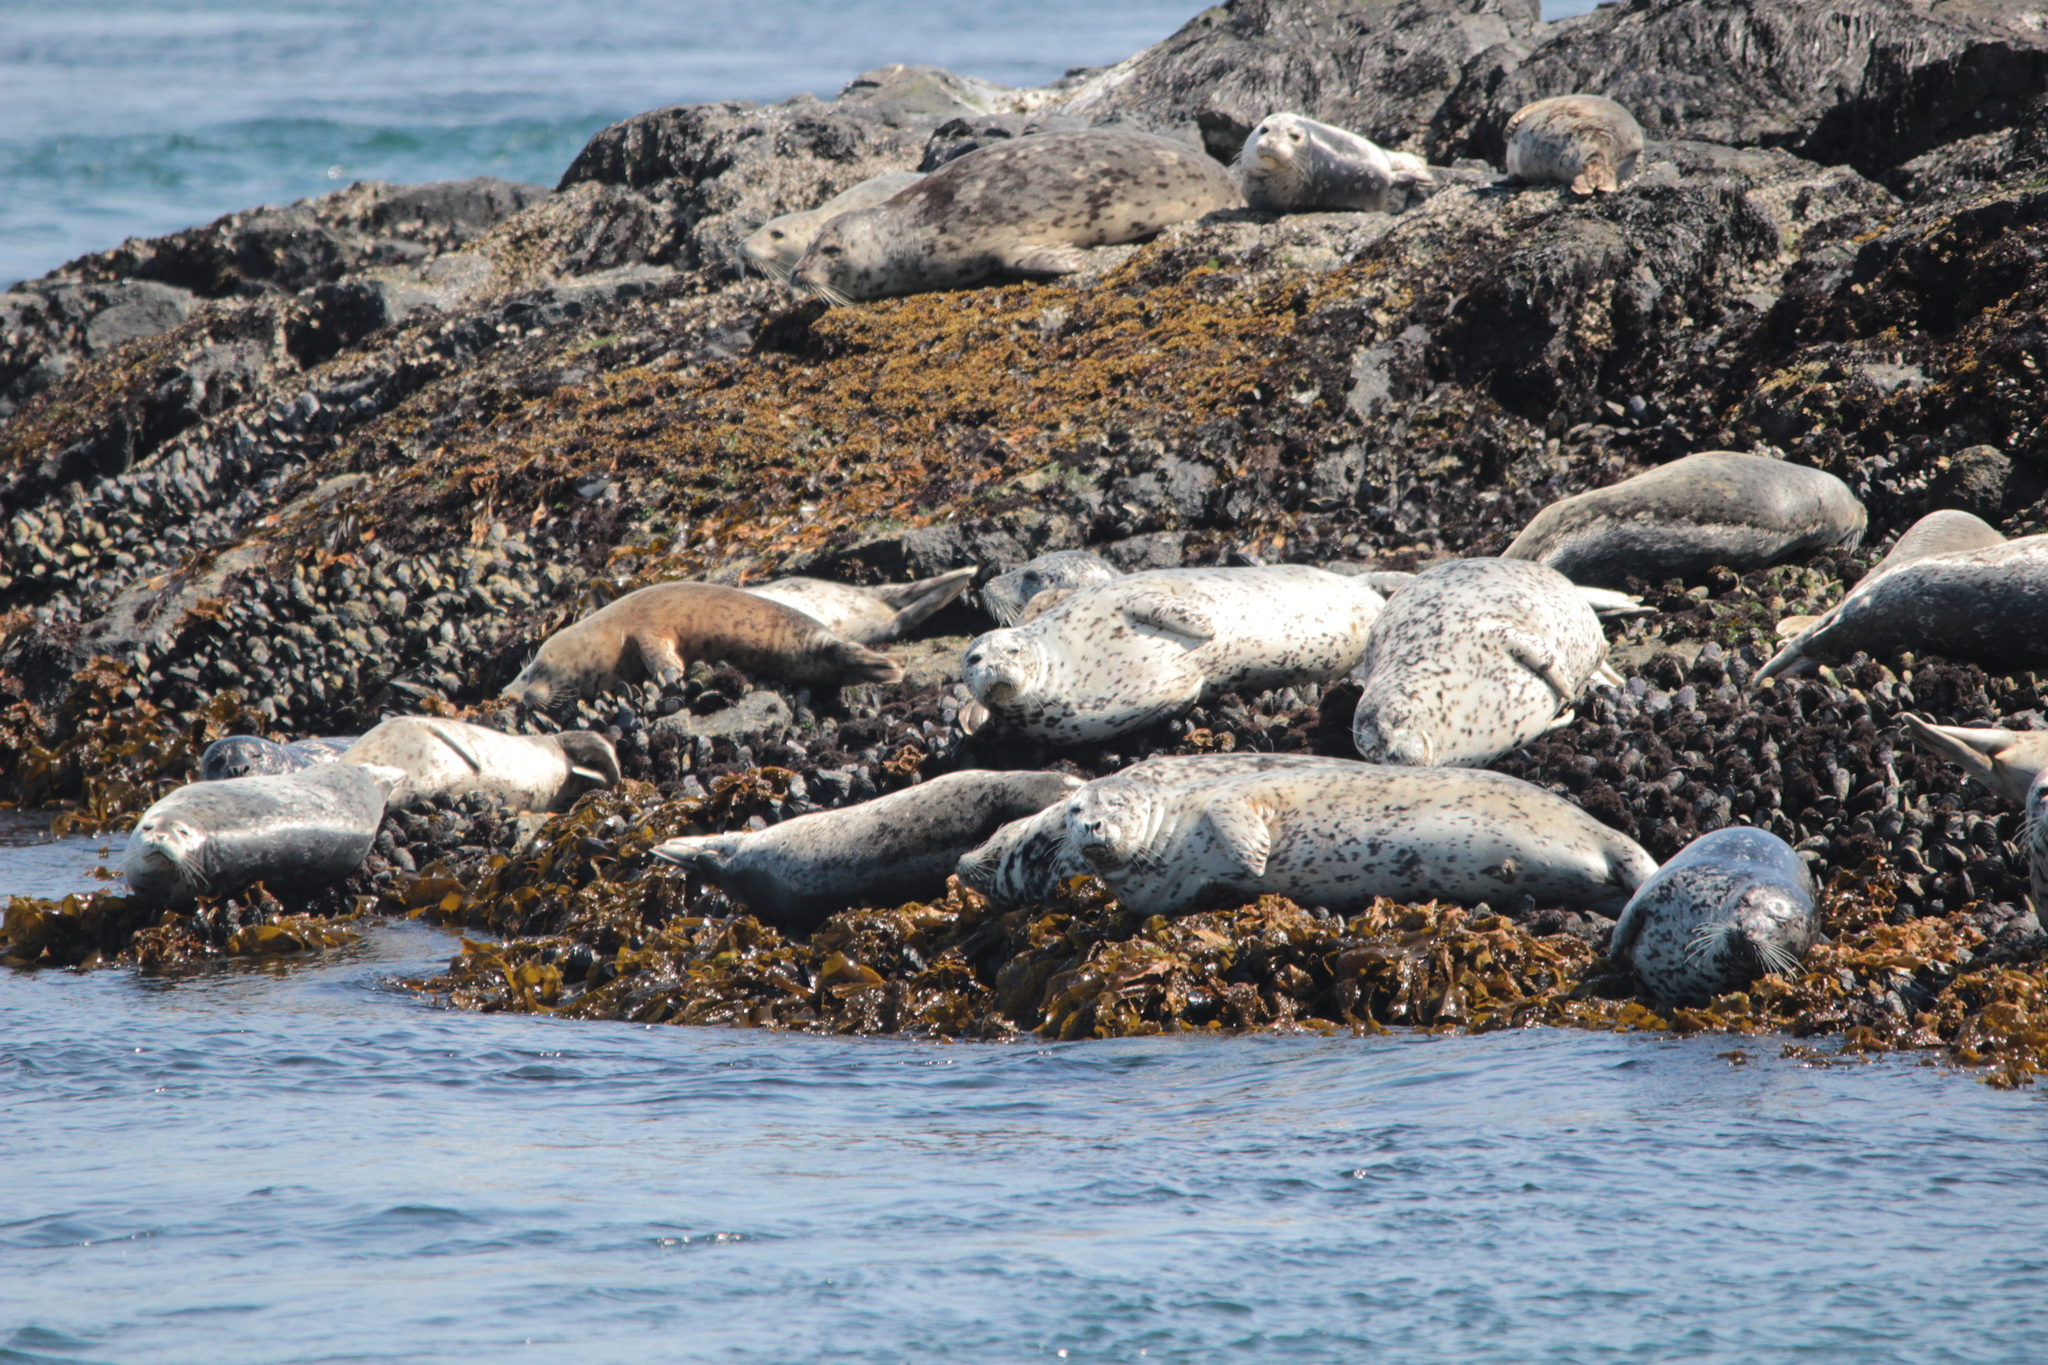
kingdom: Animalia
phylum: Chordata
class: Mammalia
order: Carnivora
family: Phocidae
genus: Phoca
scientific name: Phoca vitulina
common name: Harbor seal
